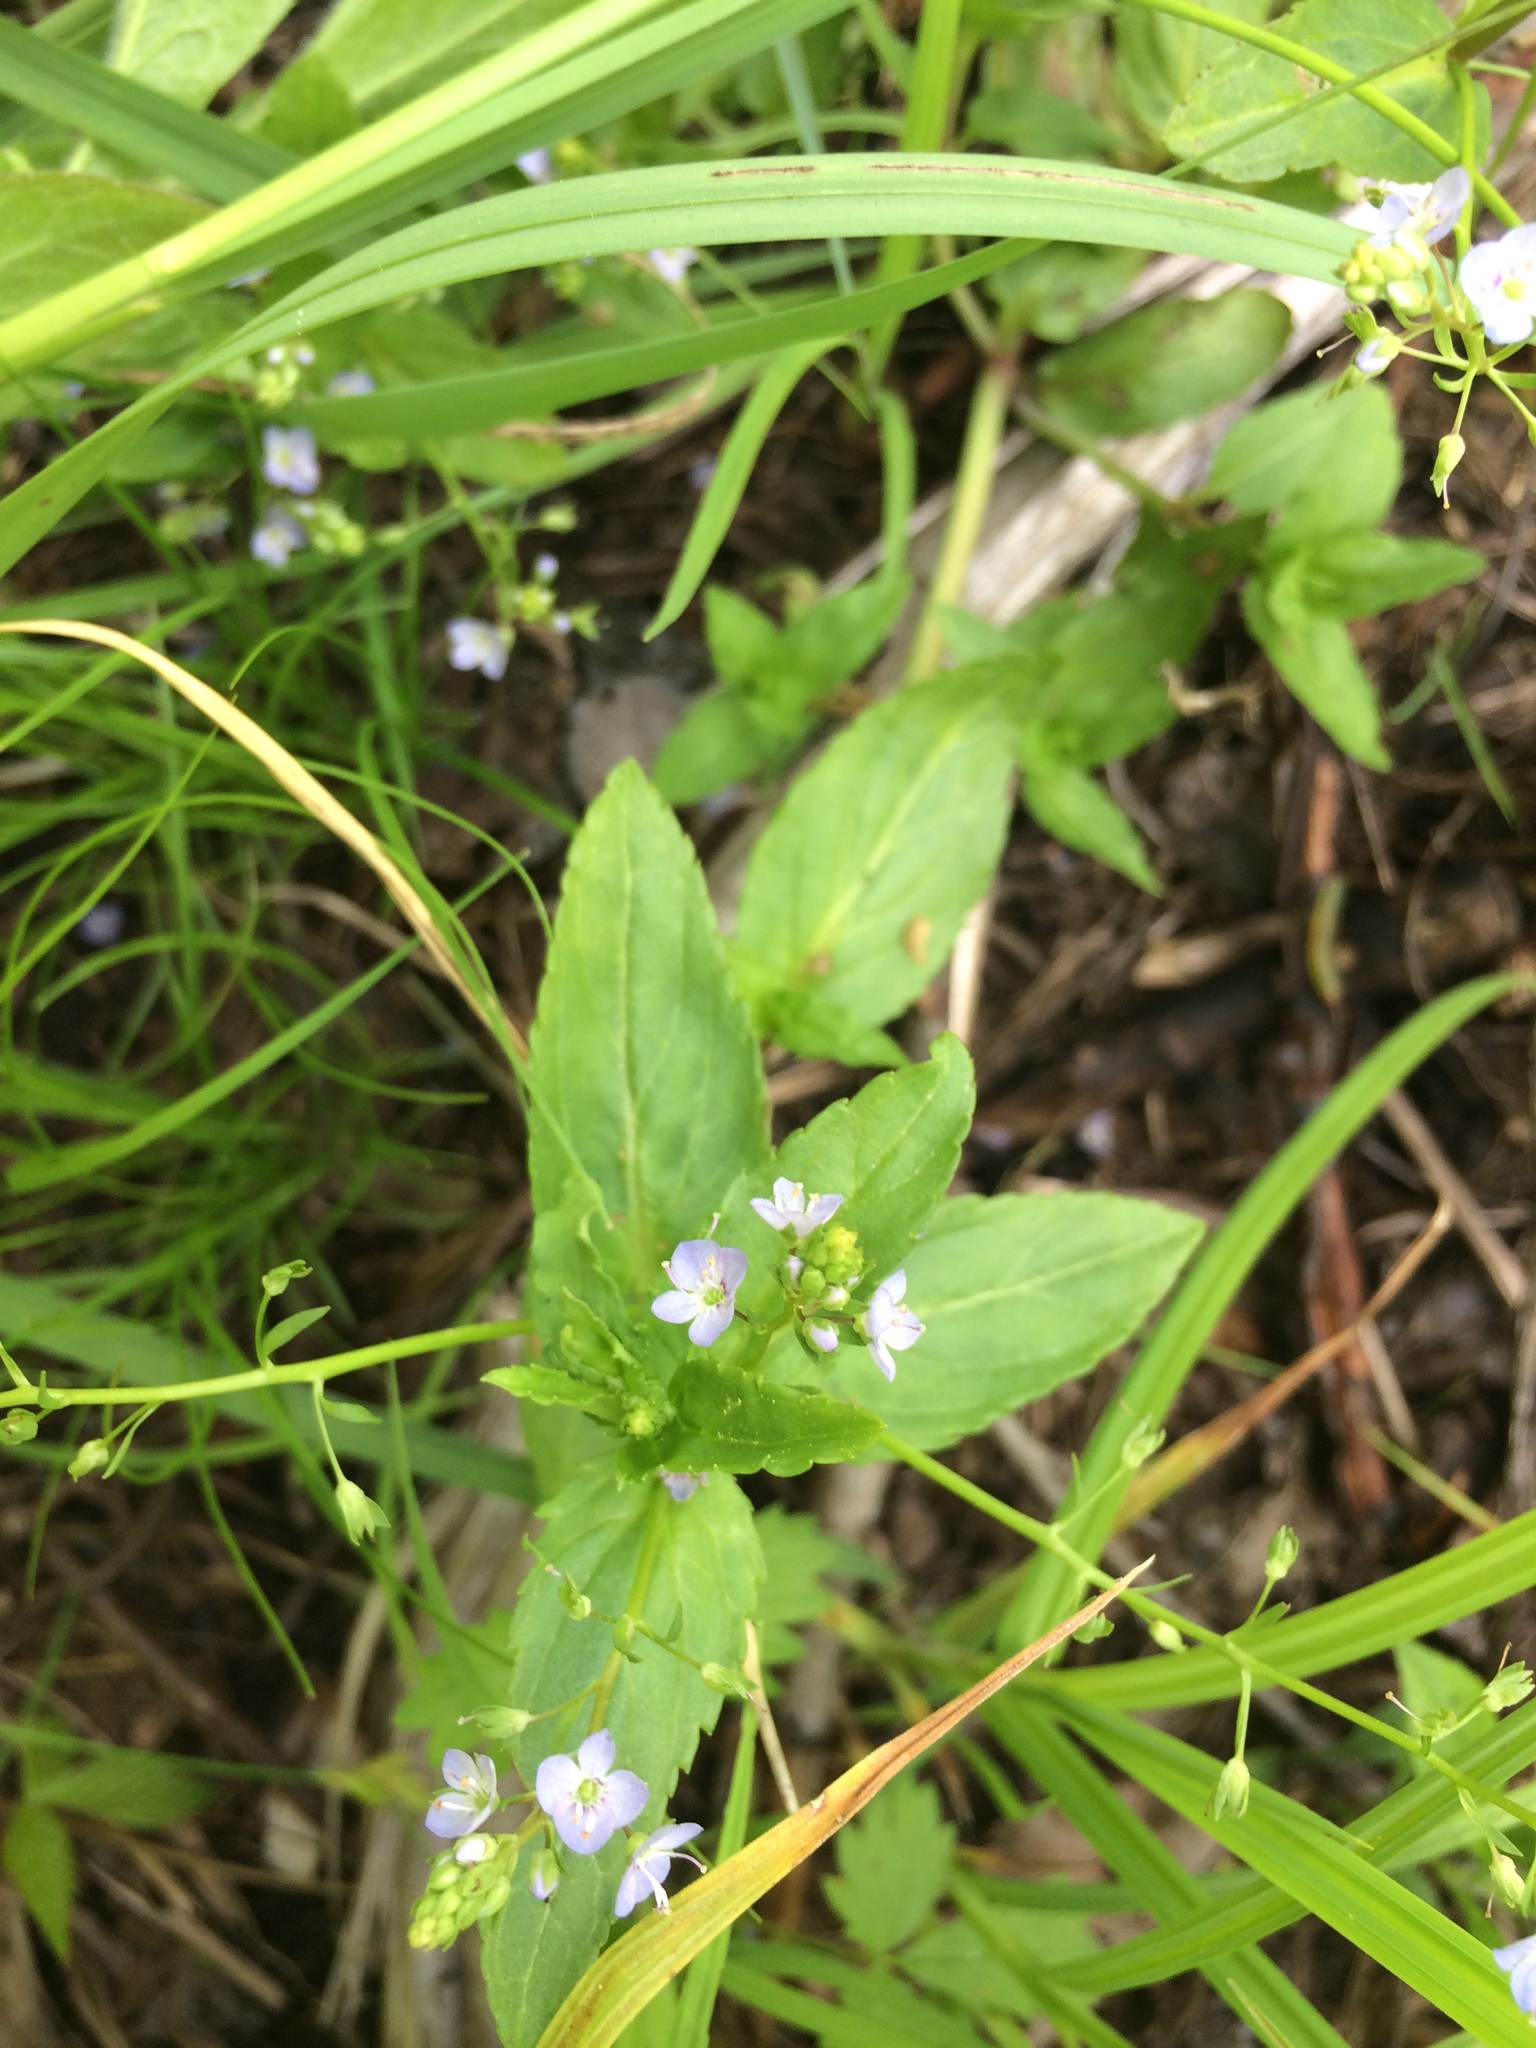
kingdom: Plantae
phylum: Tracheophyta
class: Magnoliopsida
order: Lamiales
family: Plantaginaceae
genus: Veronica
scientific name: Veronica americana
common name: American brooklime
